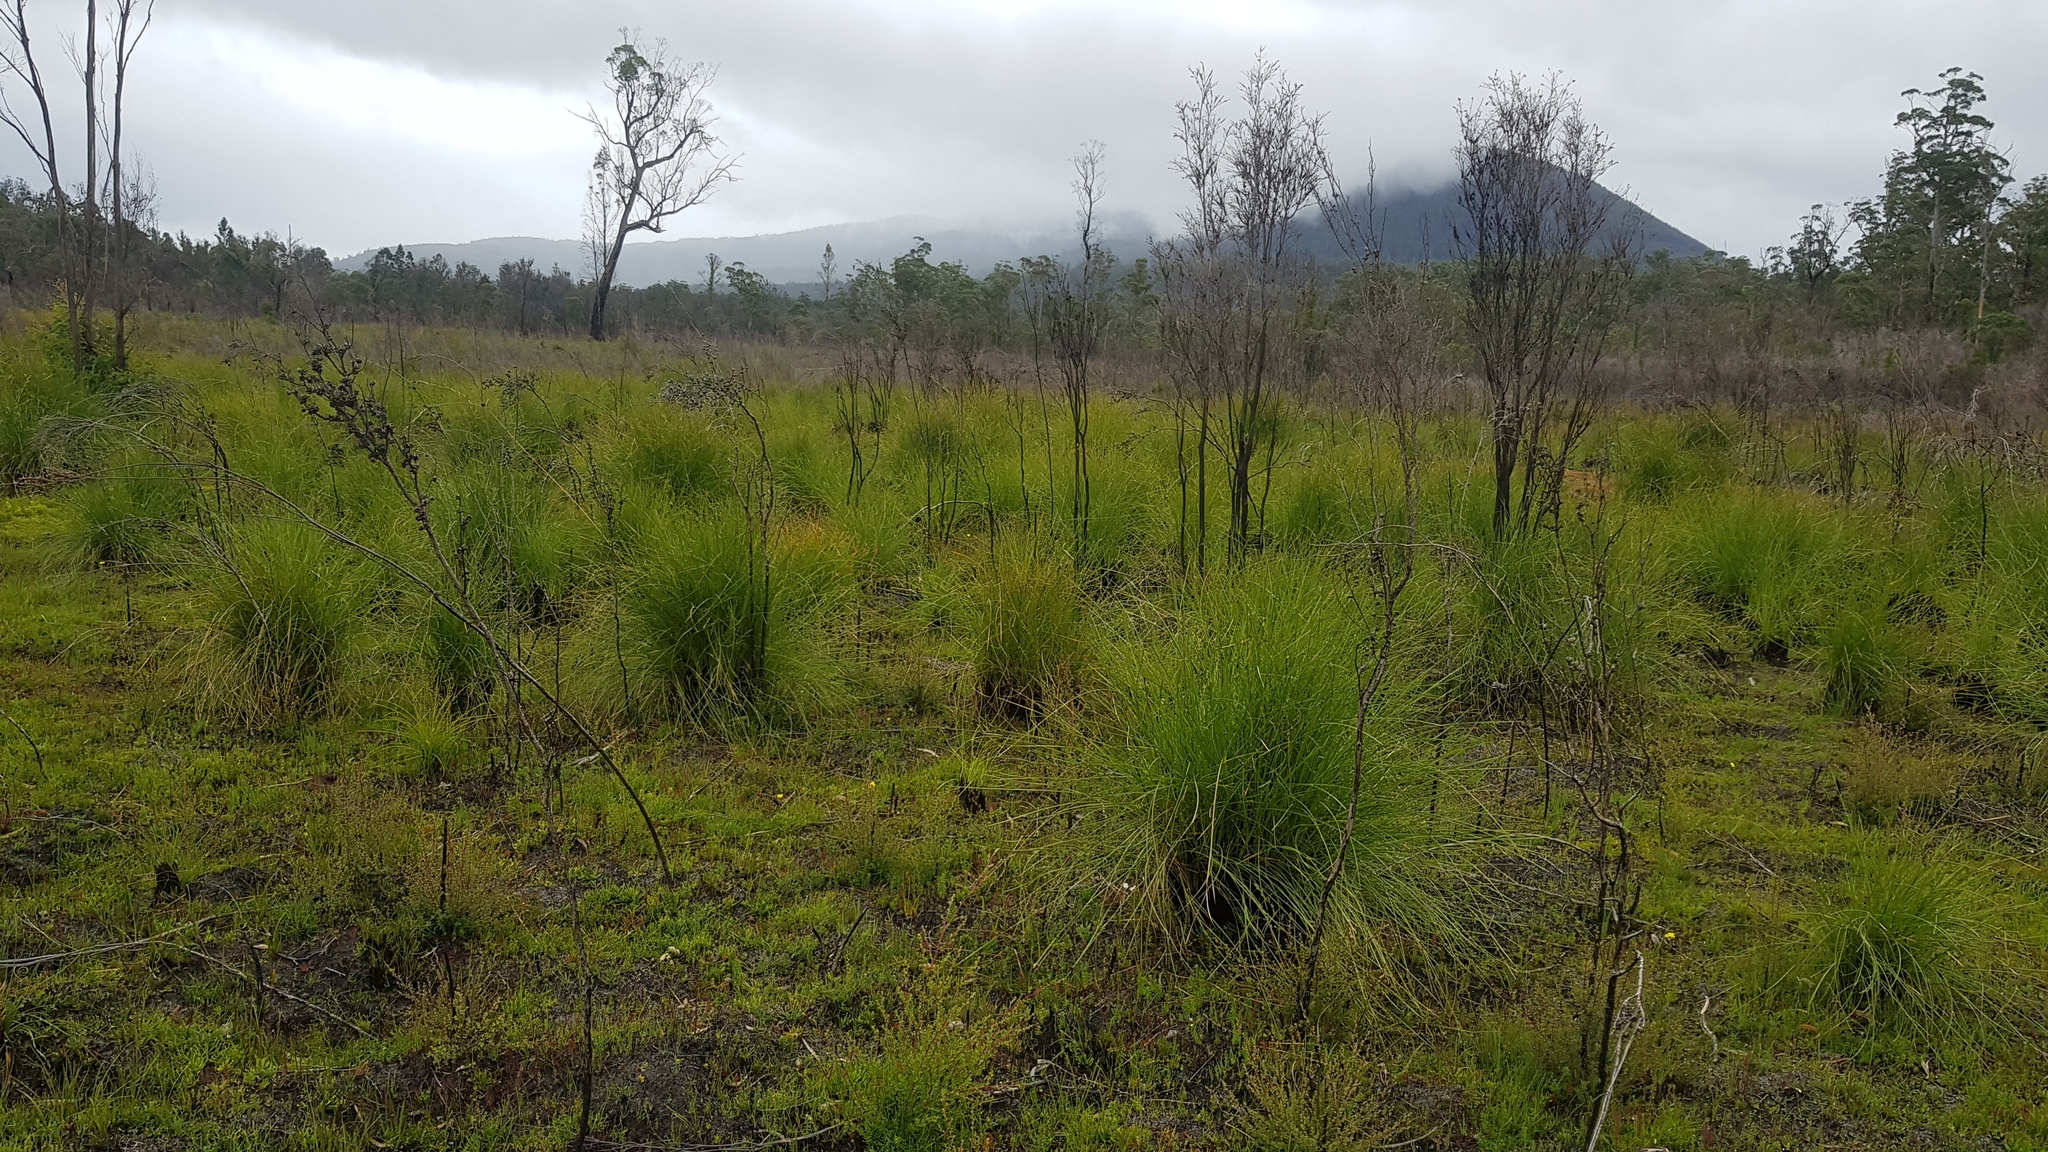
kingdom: Plantae
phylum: Tracheophyta
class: Liliopsida
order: Poales
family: Cyperaceae
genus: Gymnoschoenus
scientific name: Gymnoschoenus sphaerocephalus
